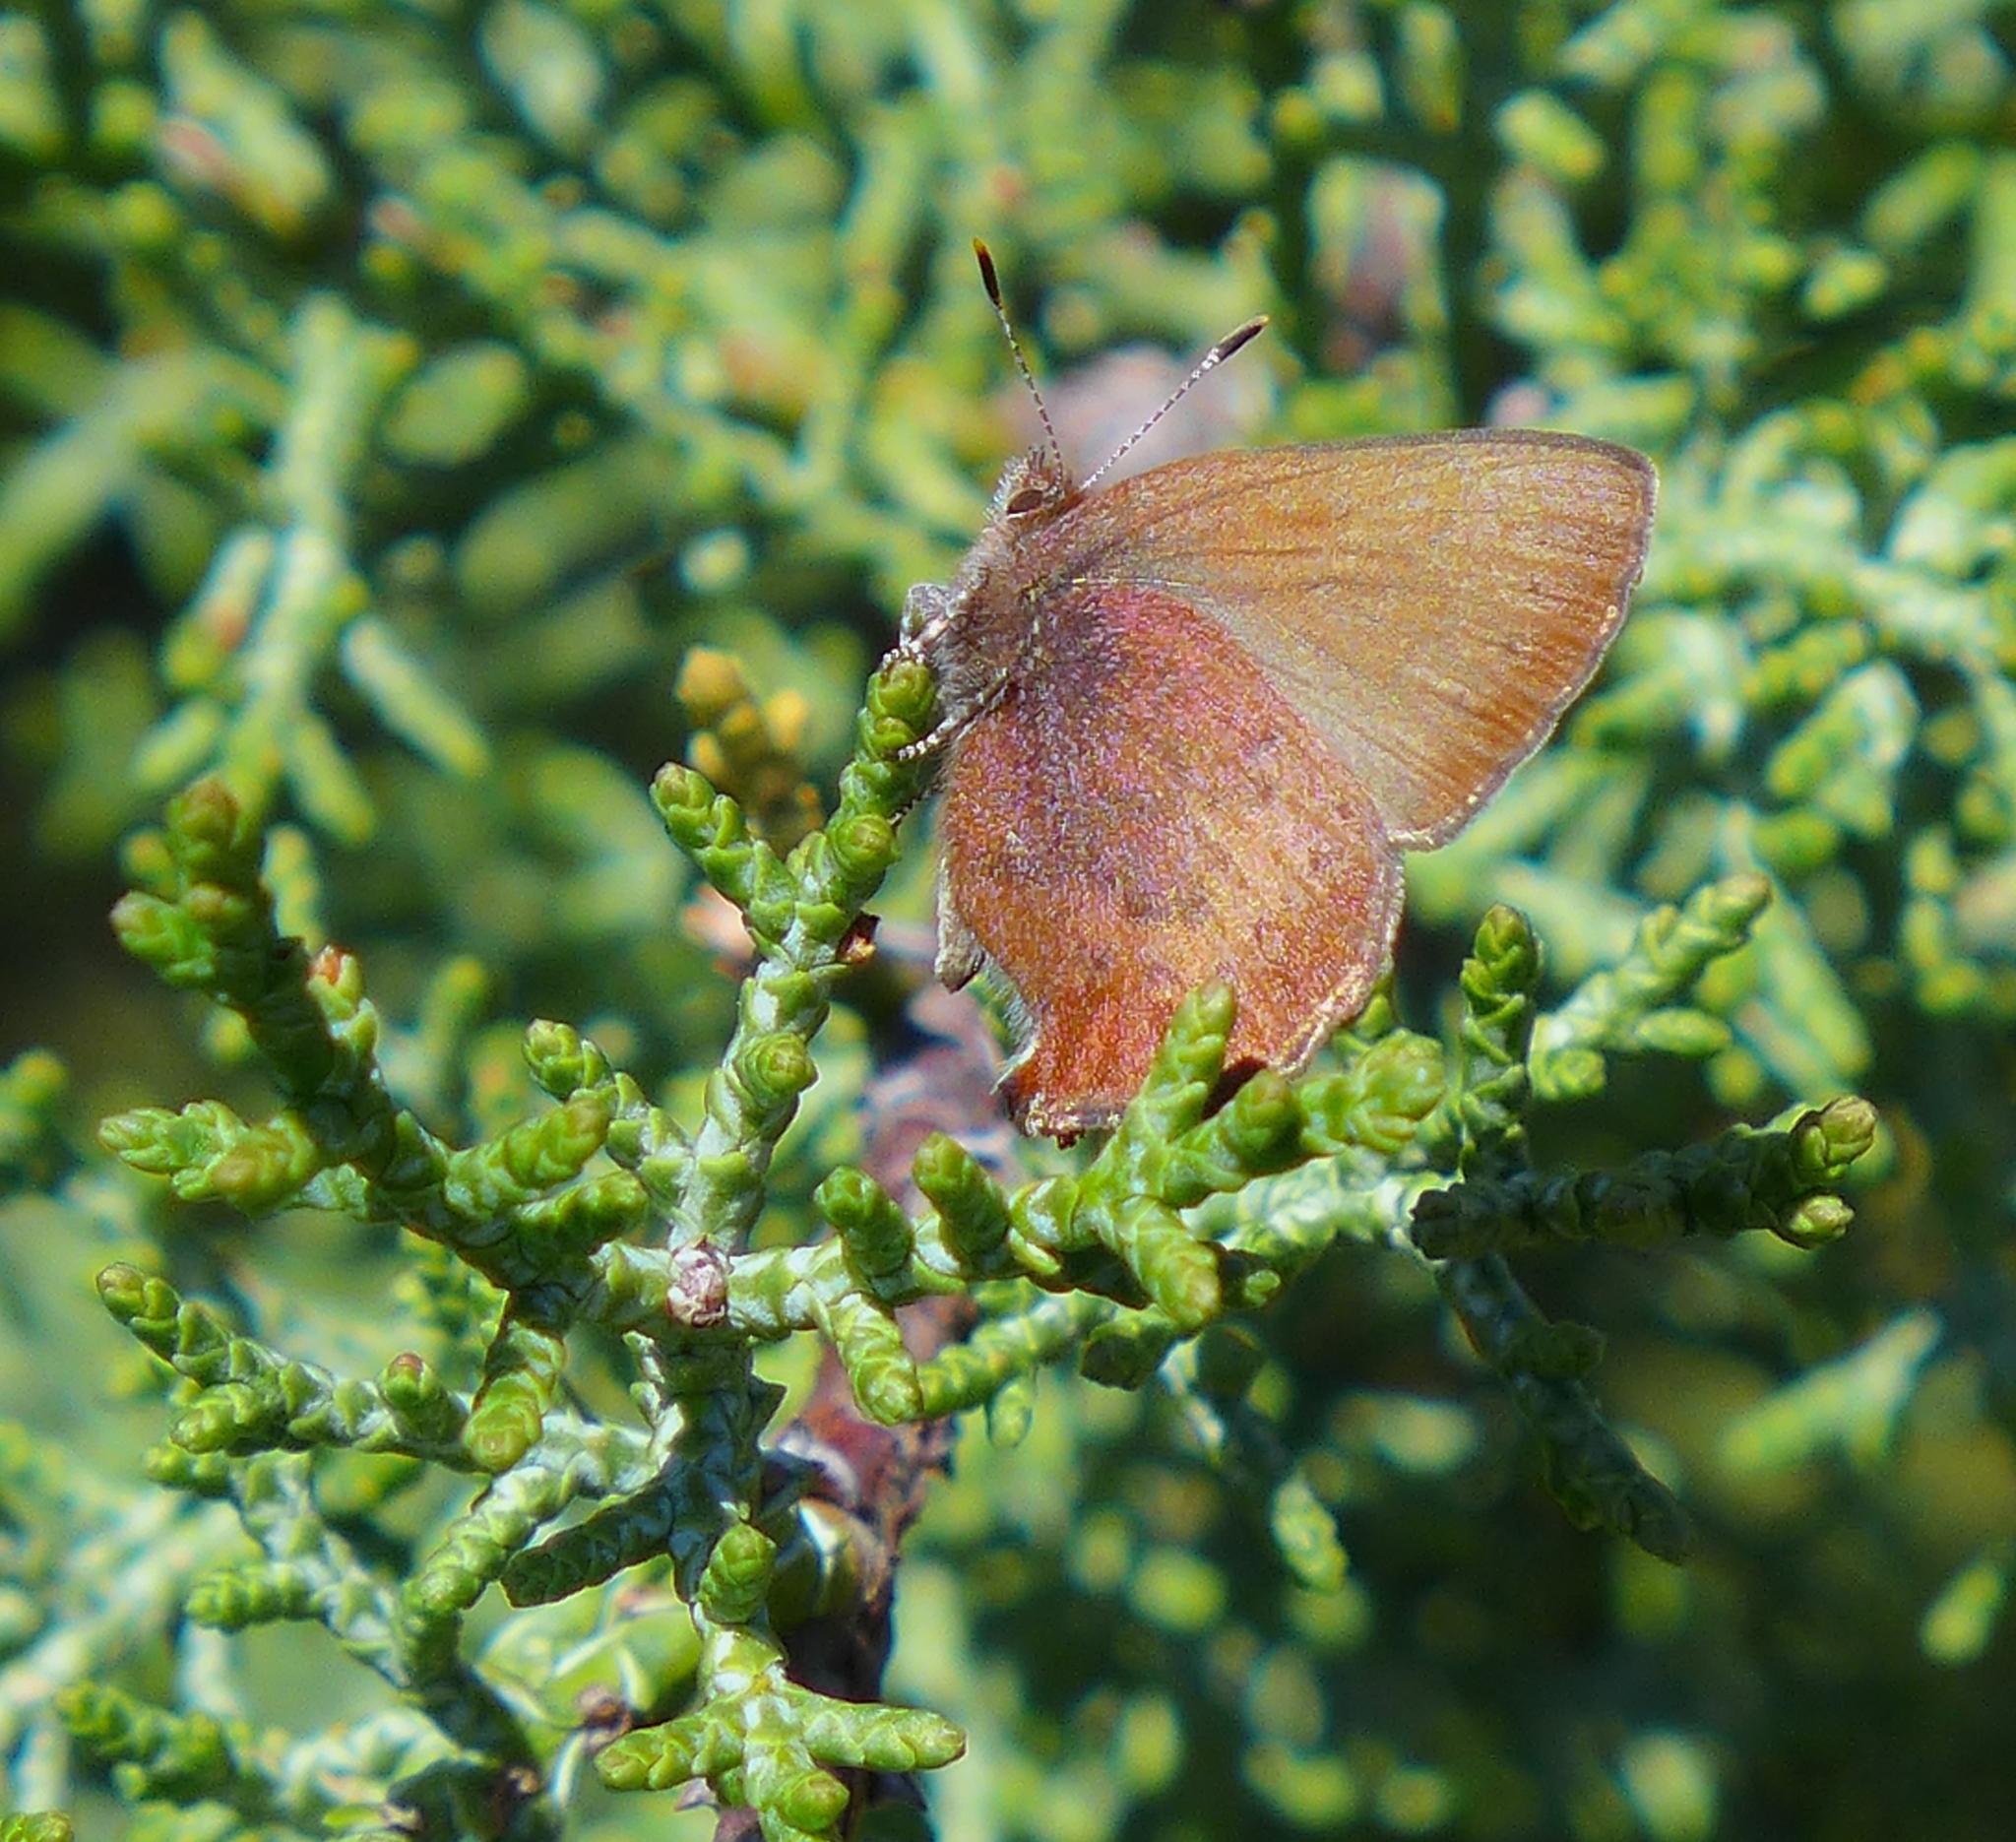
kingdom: Animalia
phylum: Arthropoda
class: Insecta
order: Lepidoptera
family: Lycaenidae
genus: Incisalia
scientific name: Incisalia irioides
